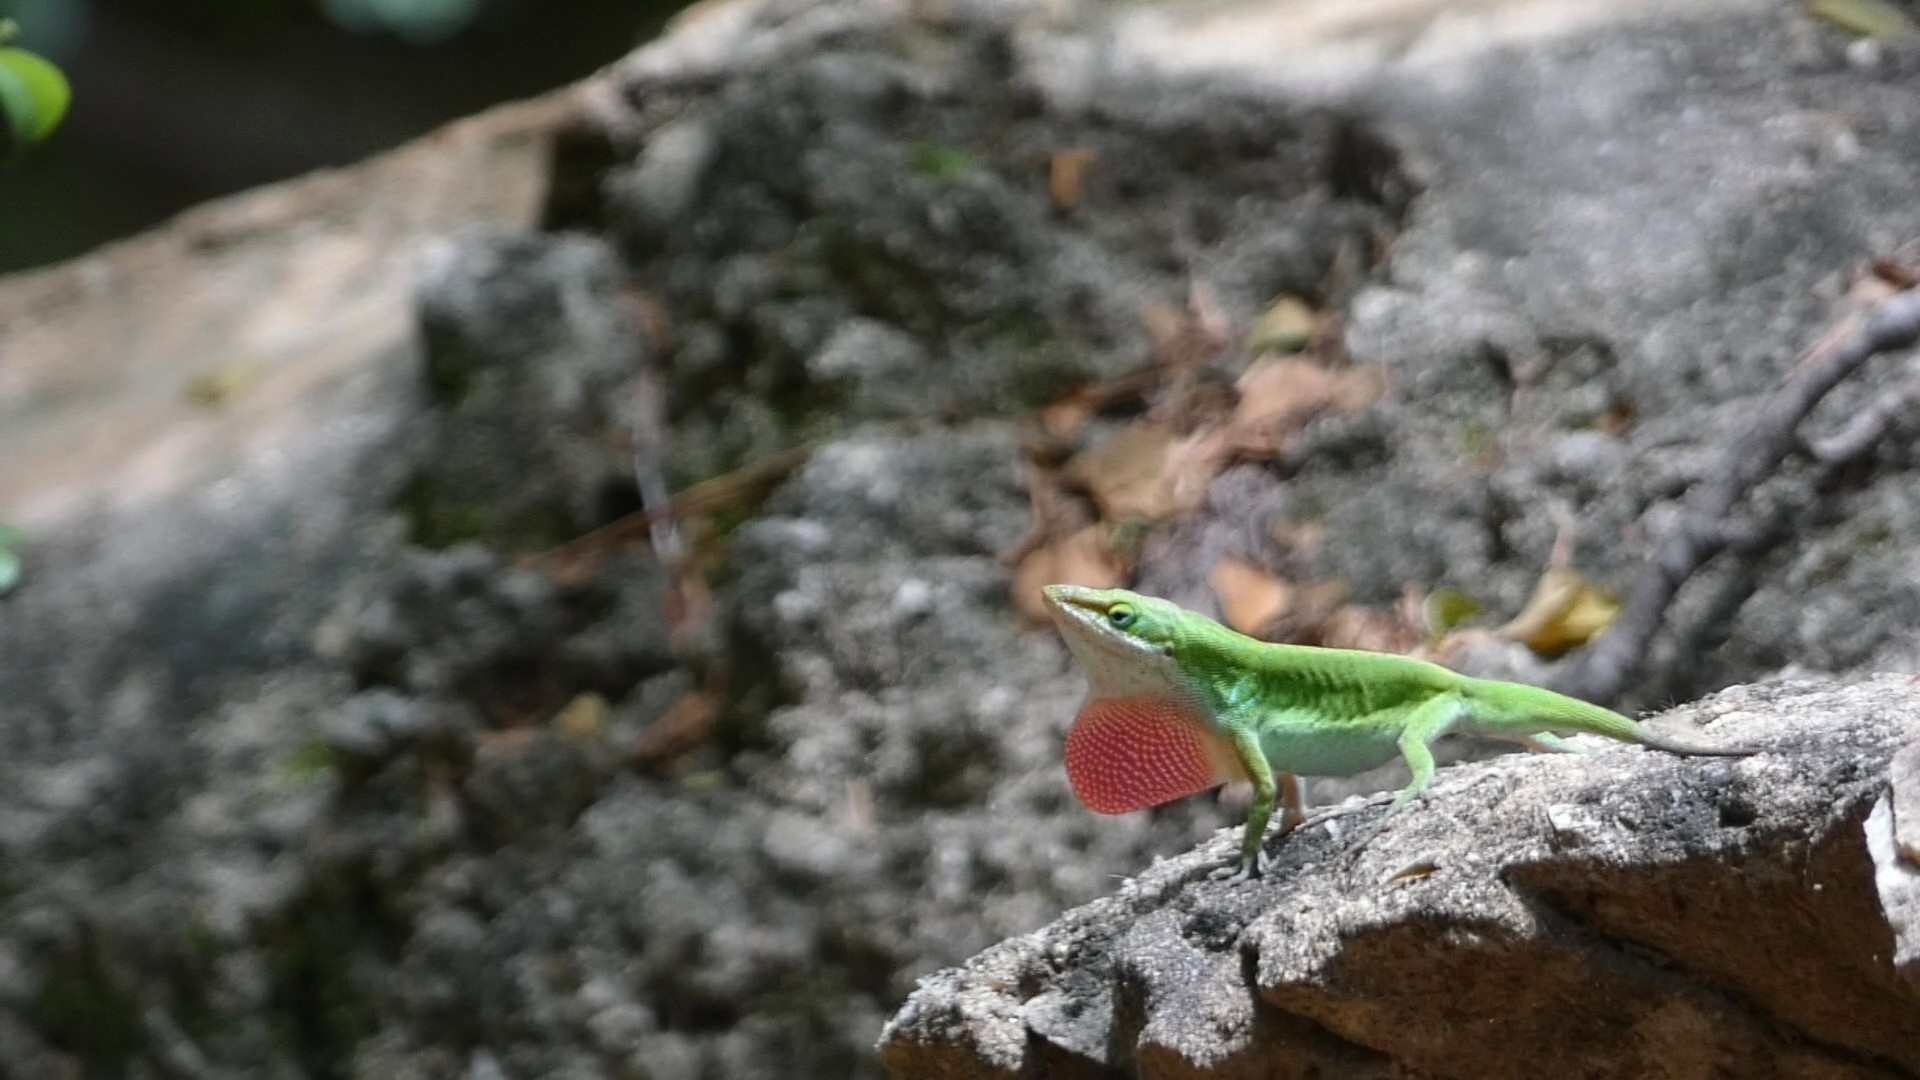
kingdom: Animalia
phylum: Chordata
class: Squamata
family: Dactyloidae
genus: Anolis
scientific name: Anolis carolinensis
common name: Green anole
